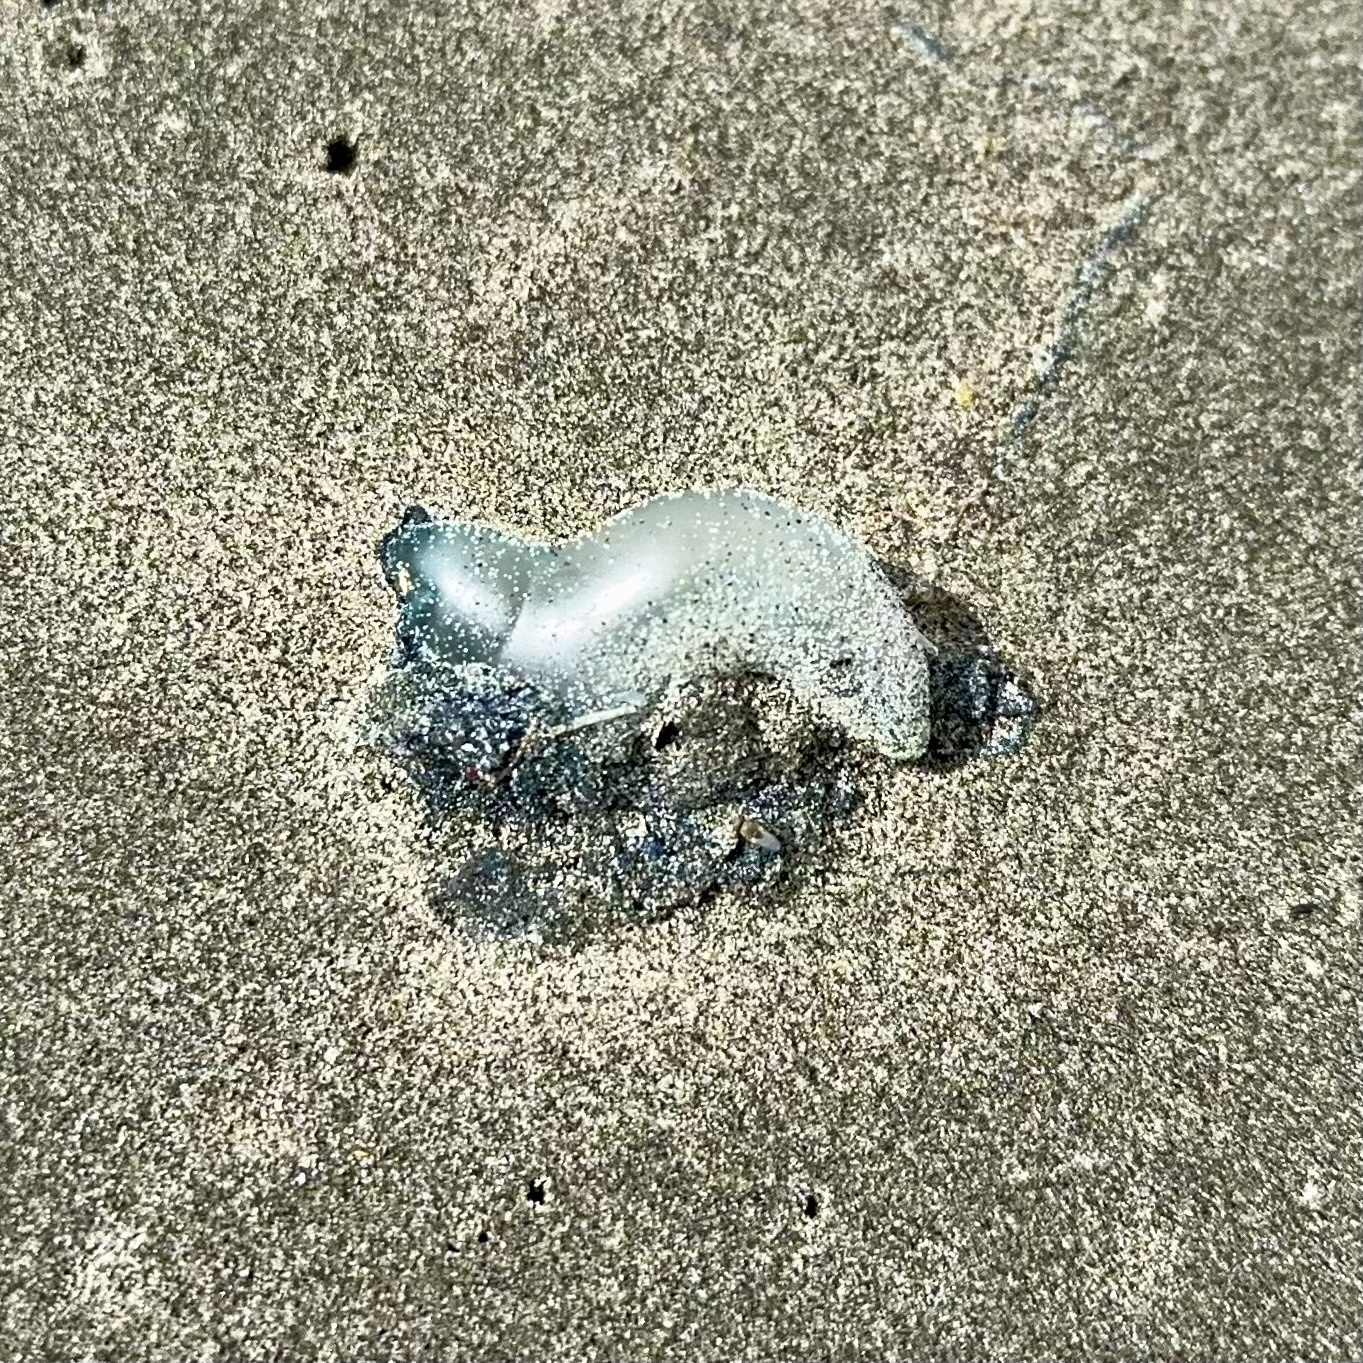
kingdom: Animalia
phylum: Cnidaria
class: Hydrozoa
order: Siphonophorae
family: Physaliidae
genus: Physalia
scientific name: Physalia physalis
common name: Portuguese man-of-war
